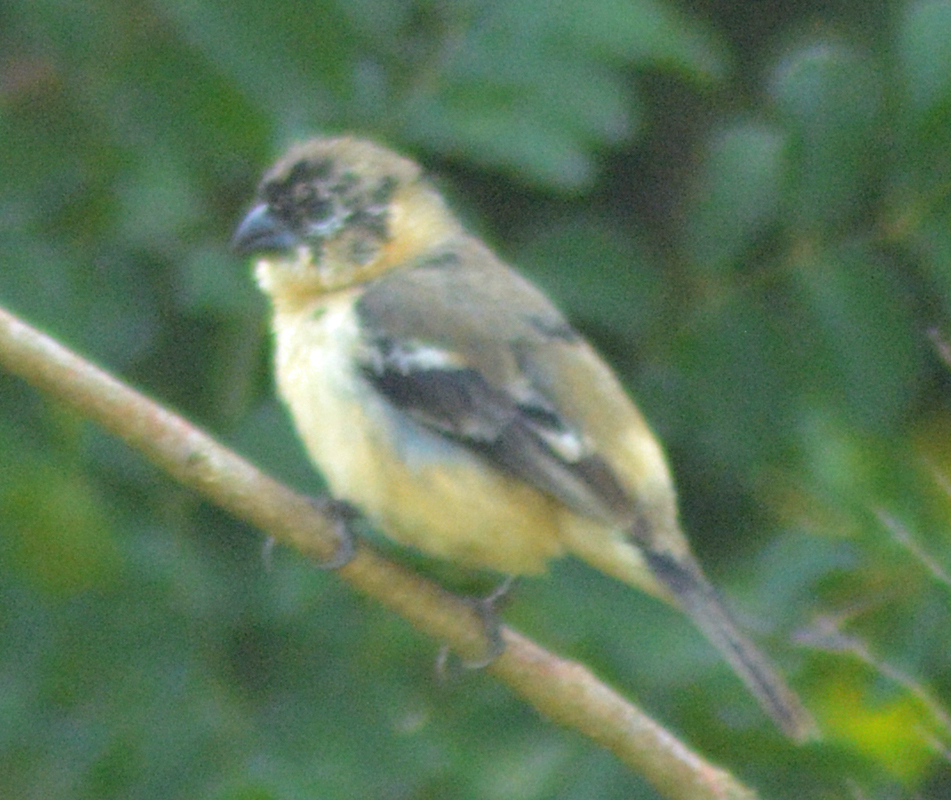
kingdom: Animalia
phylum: Chordata
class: Aves
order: Passeriformes
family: Thraupidae
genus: Sporophila
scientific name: Sporophila morelleti
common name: Morelet's seedeater
